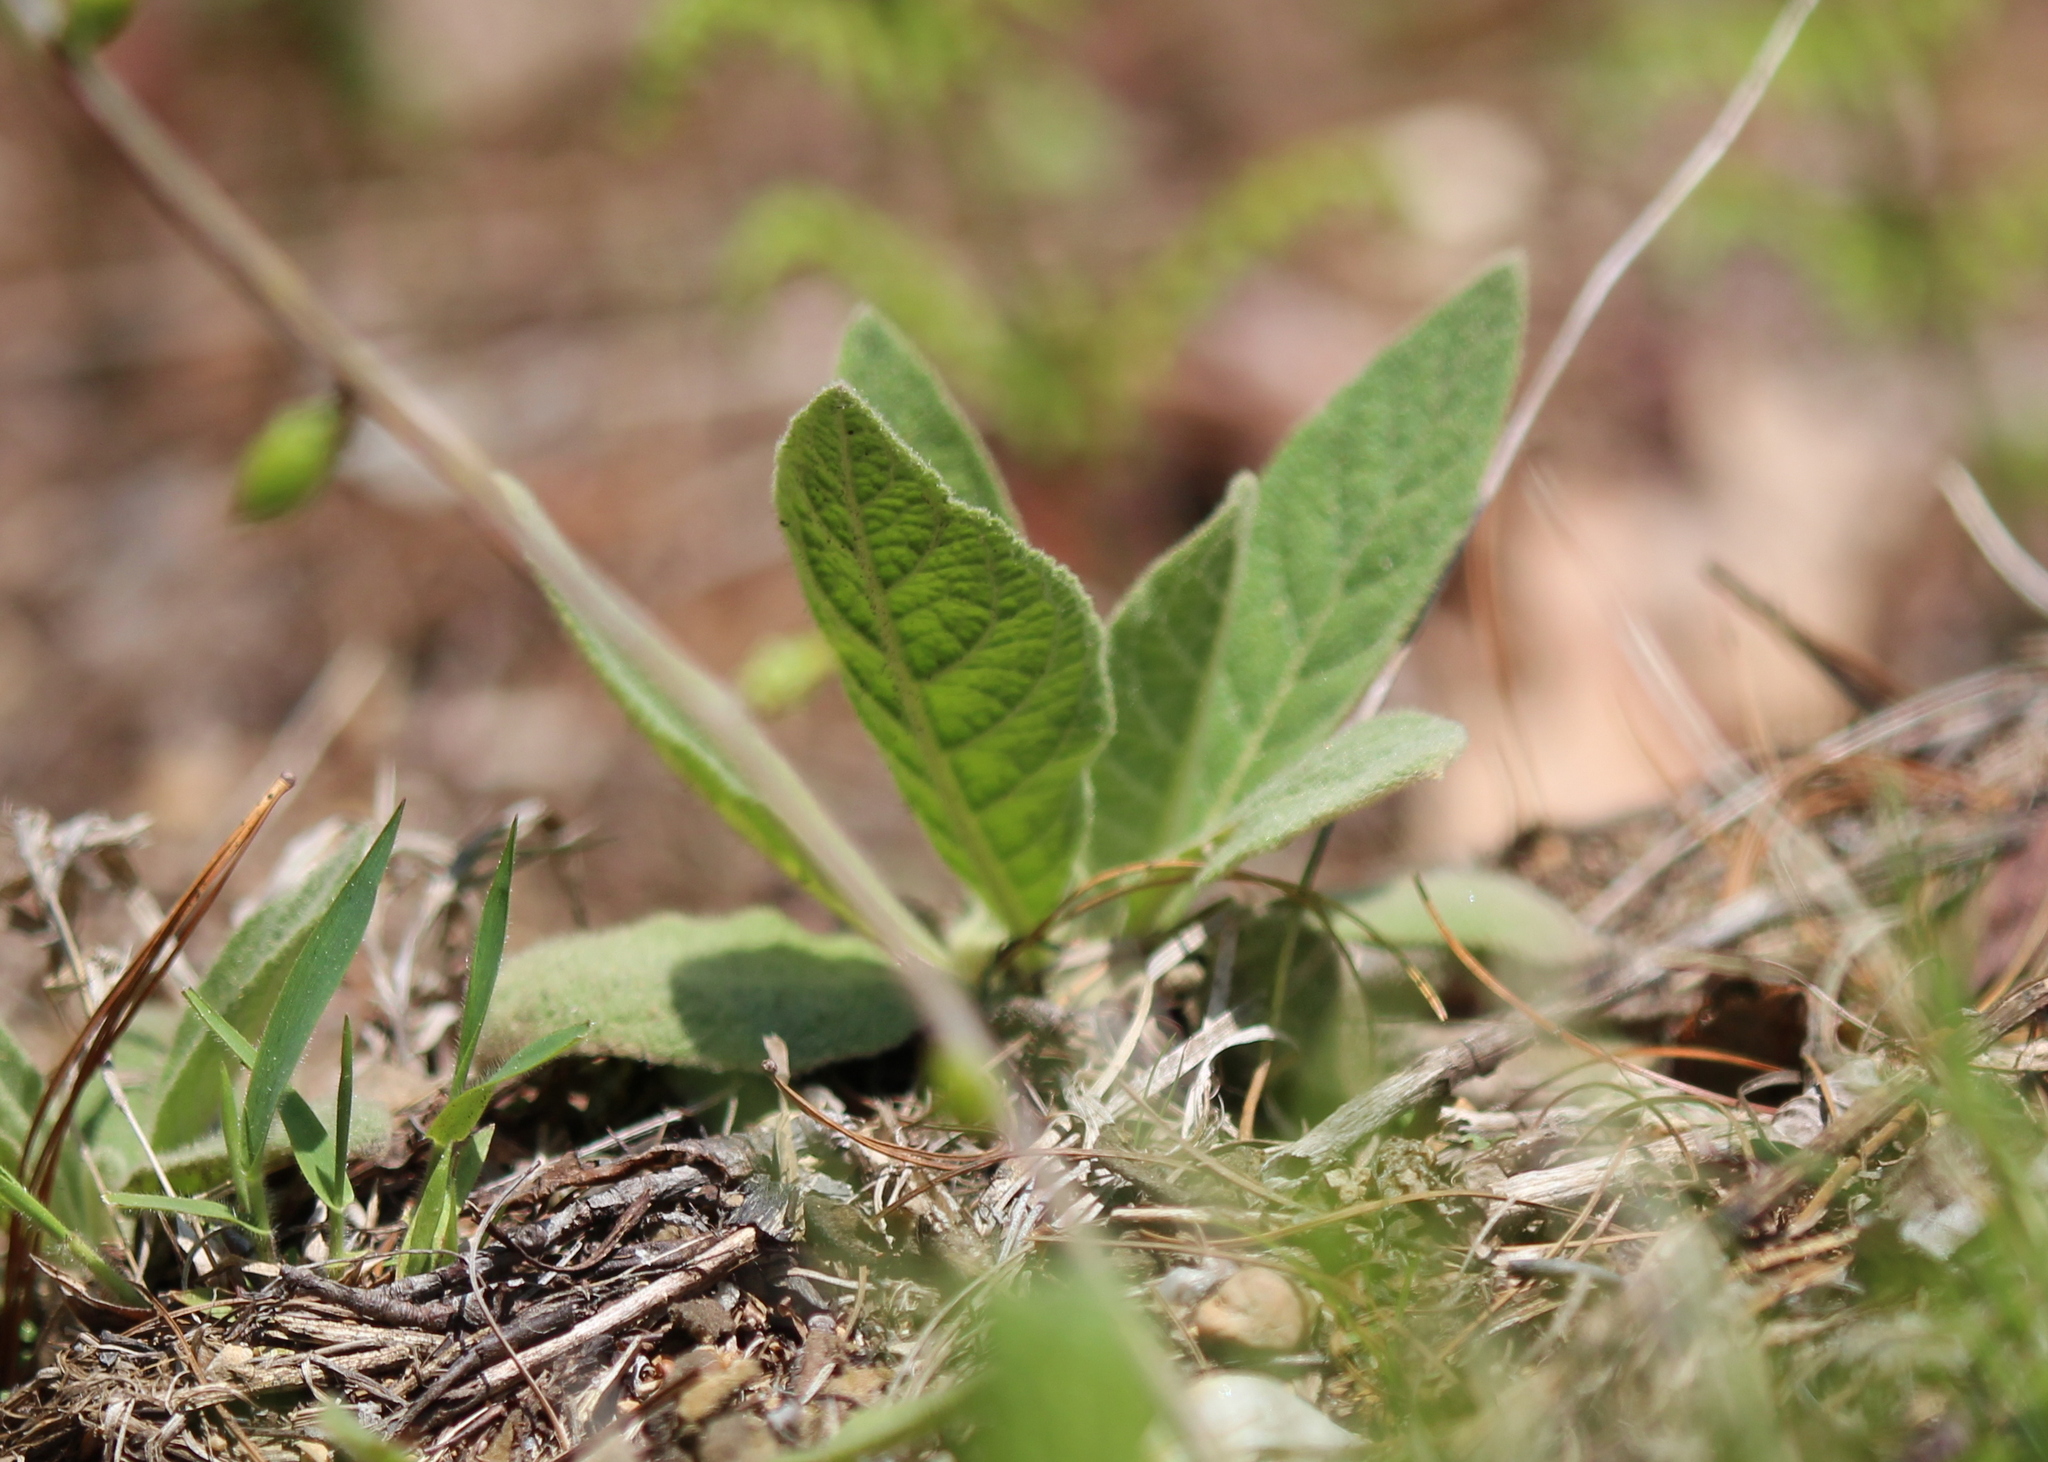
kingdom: Plantae
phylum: Tracheophyta
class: Magnoliopsida
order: Lamiales
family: Scrophulariaceae
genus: Verbascum
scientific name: Verbascum thapsus
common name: Common mullein
